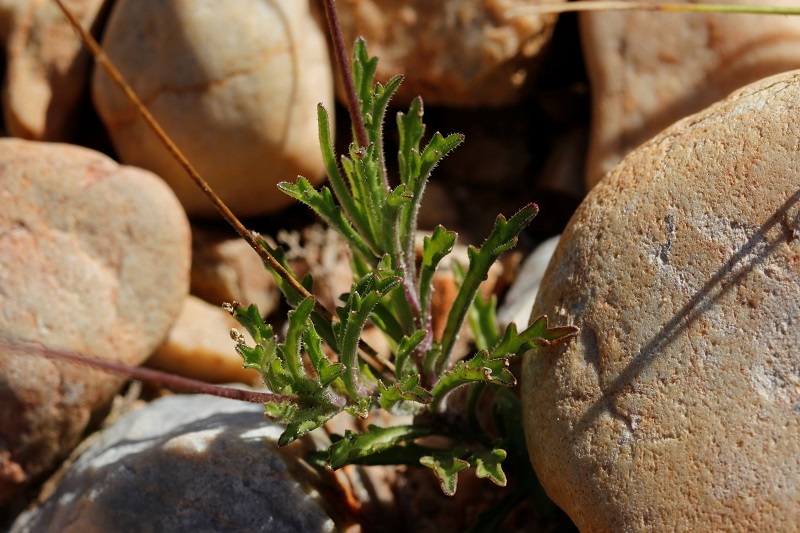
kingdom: Plantae
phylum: Tracheophyta
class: Magnoliopsida
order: Asterales
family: Campanulaceae
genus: Lobelia
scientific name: Lobelia tomentosa
